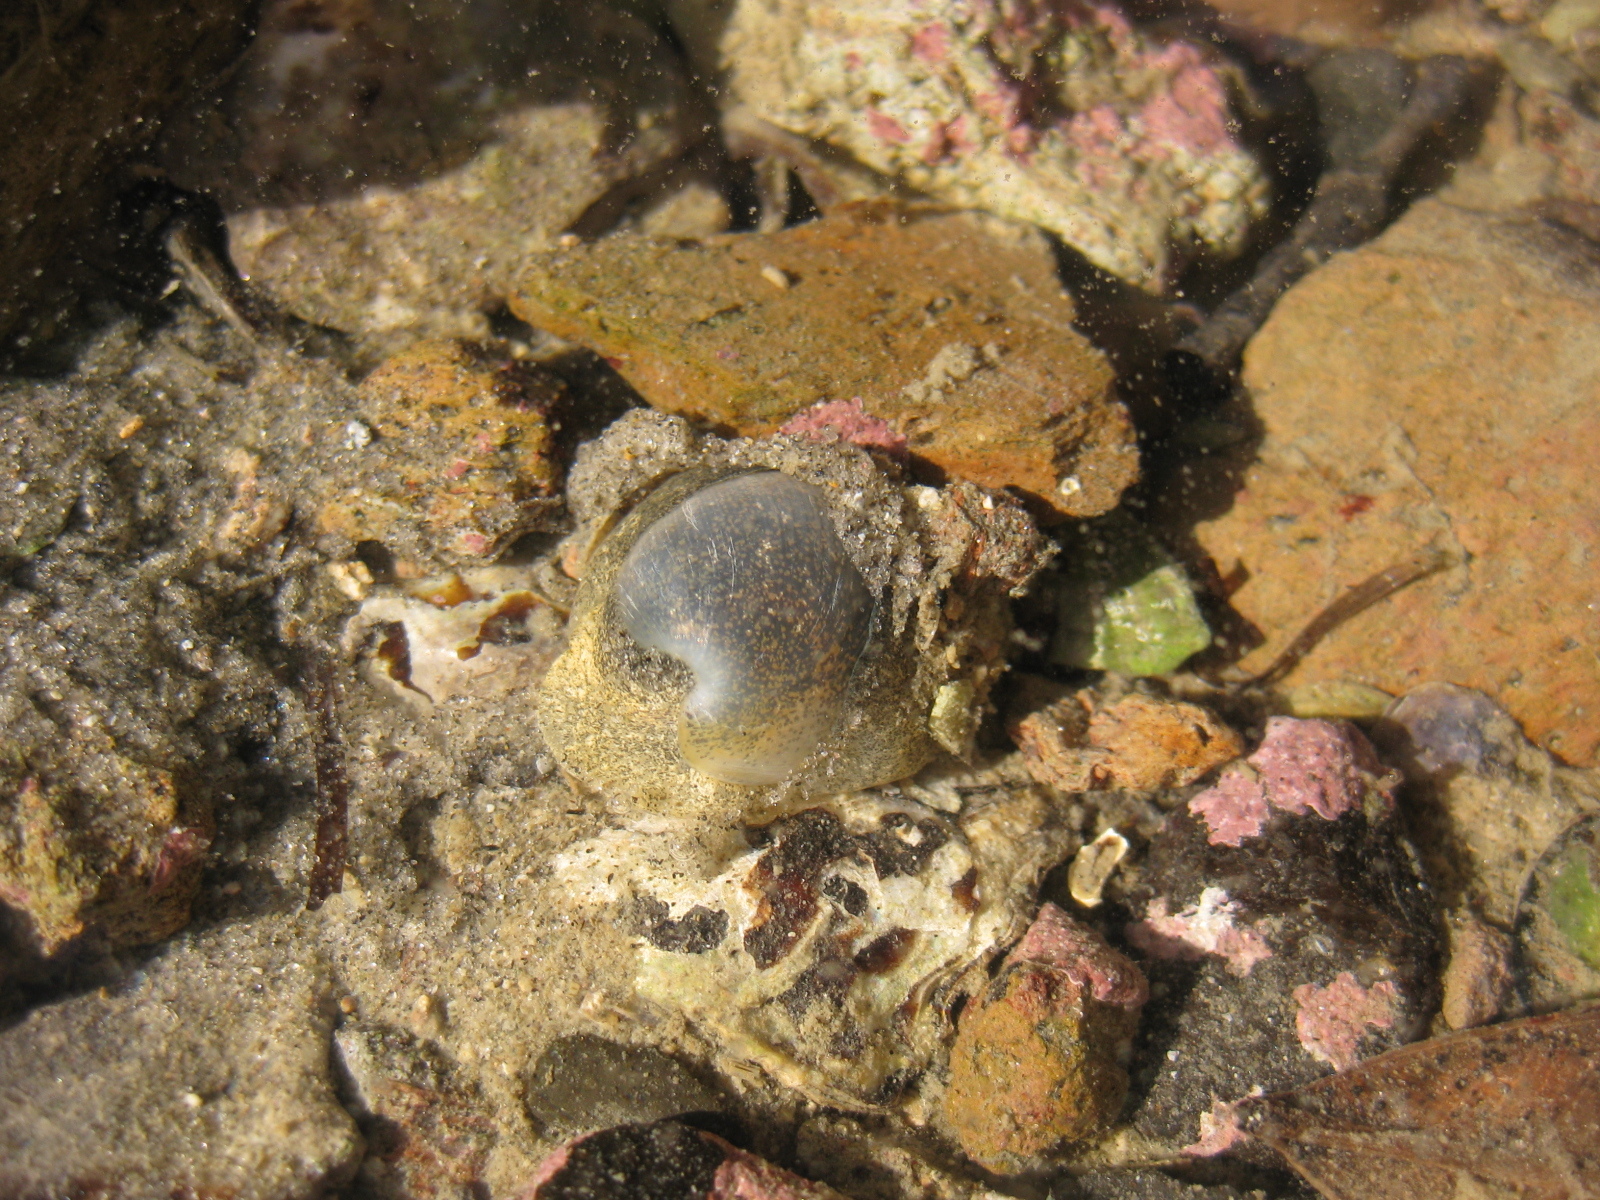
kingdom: Animalia
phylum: Mollusca
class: Gastropoda
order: Cephalaspidea
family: Haminoeidae
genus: Papawera
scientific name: Papawera zelandiae
